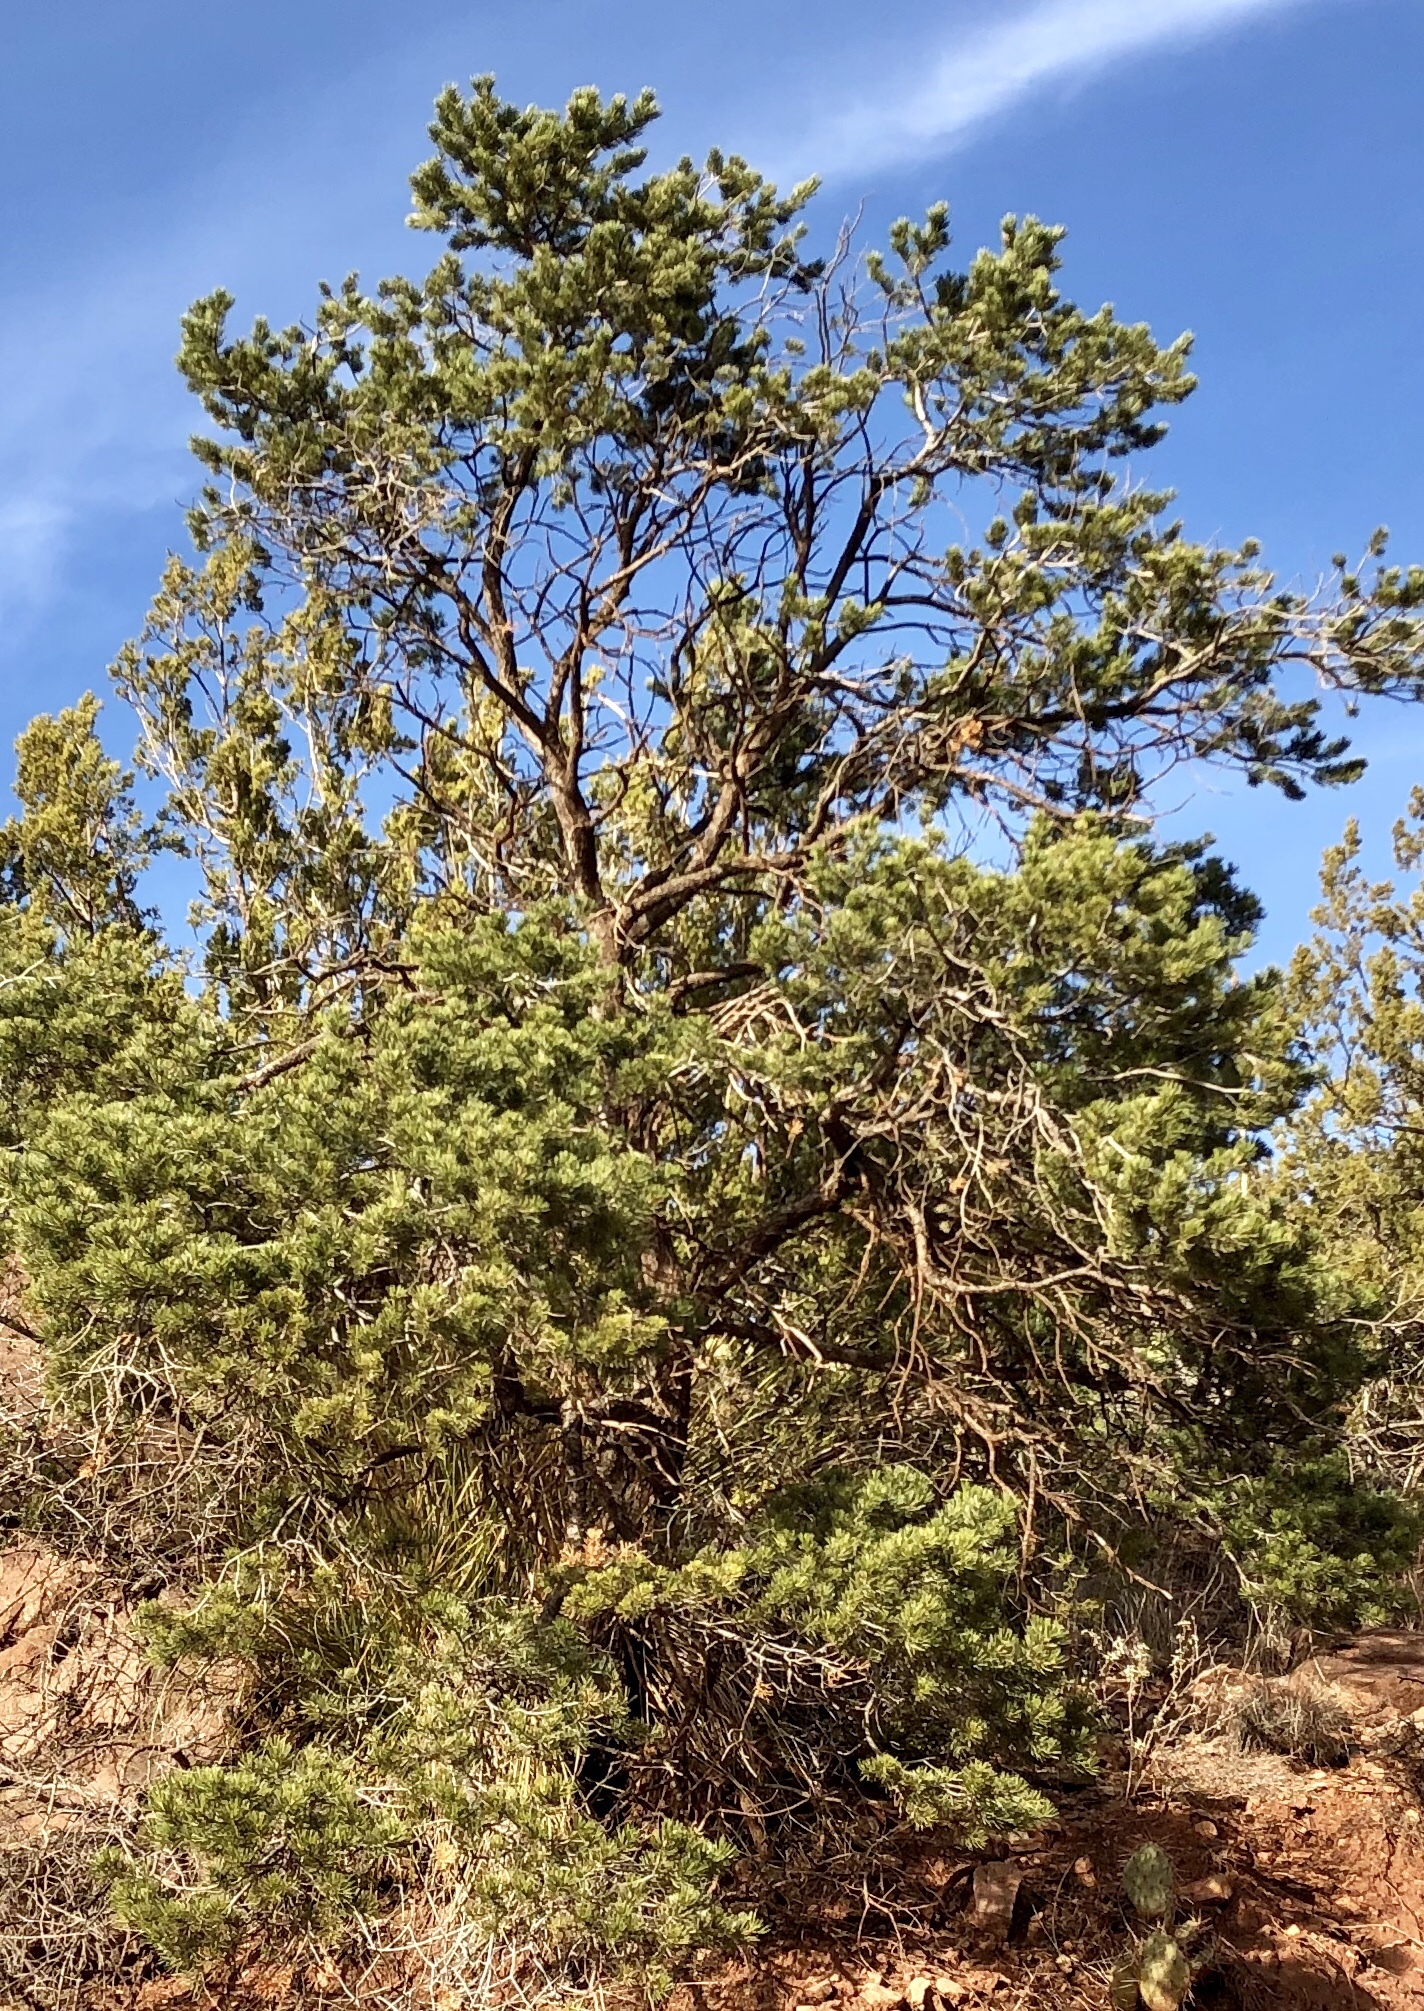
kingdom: Plantae
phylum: Tracheophyta
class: Pinopsida
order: Pinales
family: Pinaceae
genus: Pinus
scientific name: Pinus edulis
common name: Colorado pinyon
